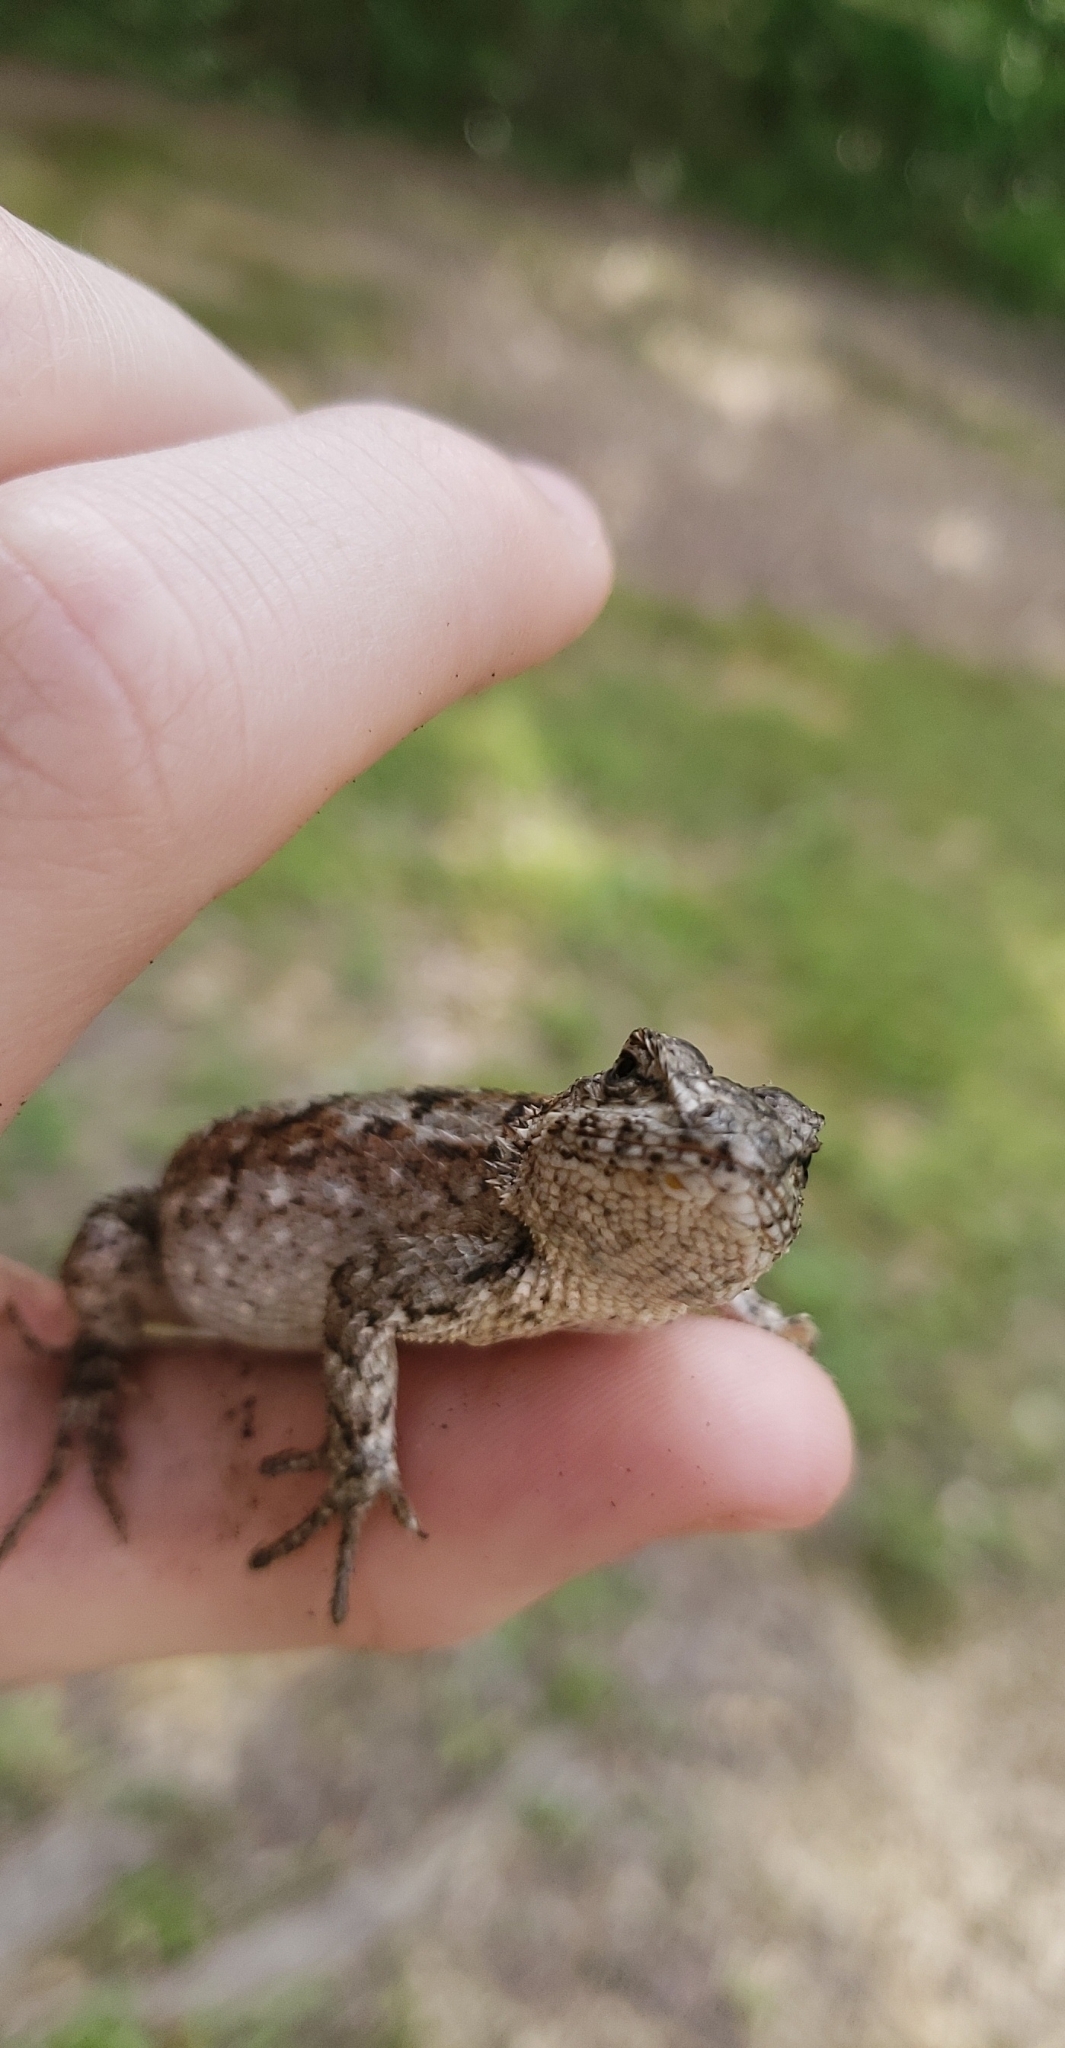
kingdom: Animalia
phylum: Chordata
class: Squamata
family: Phrynosomatidae
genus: Sceloporus
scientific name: Sceloporus undulatus
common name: Eastern fence lizard
